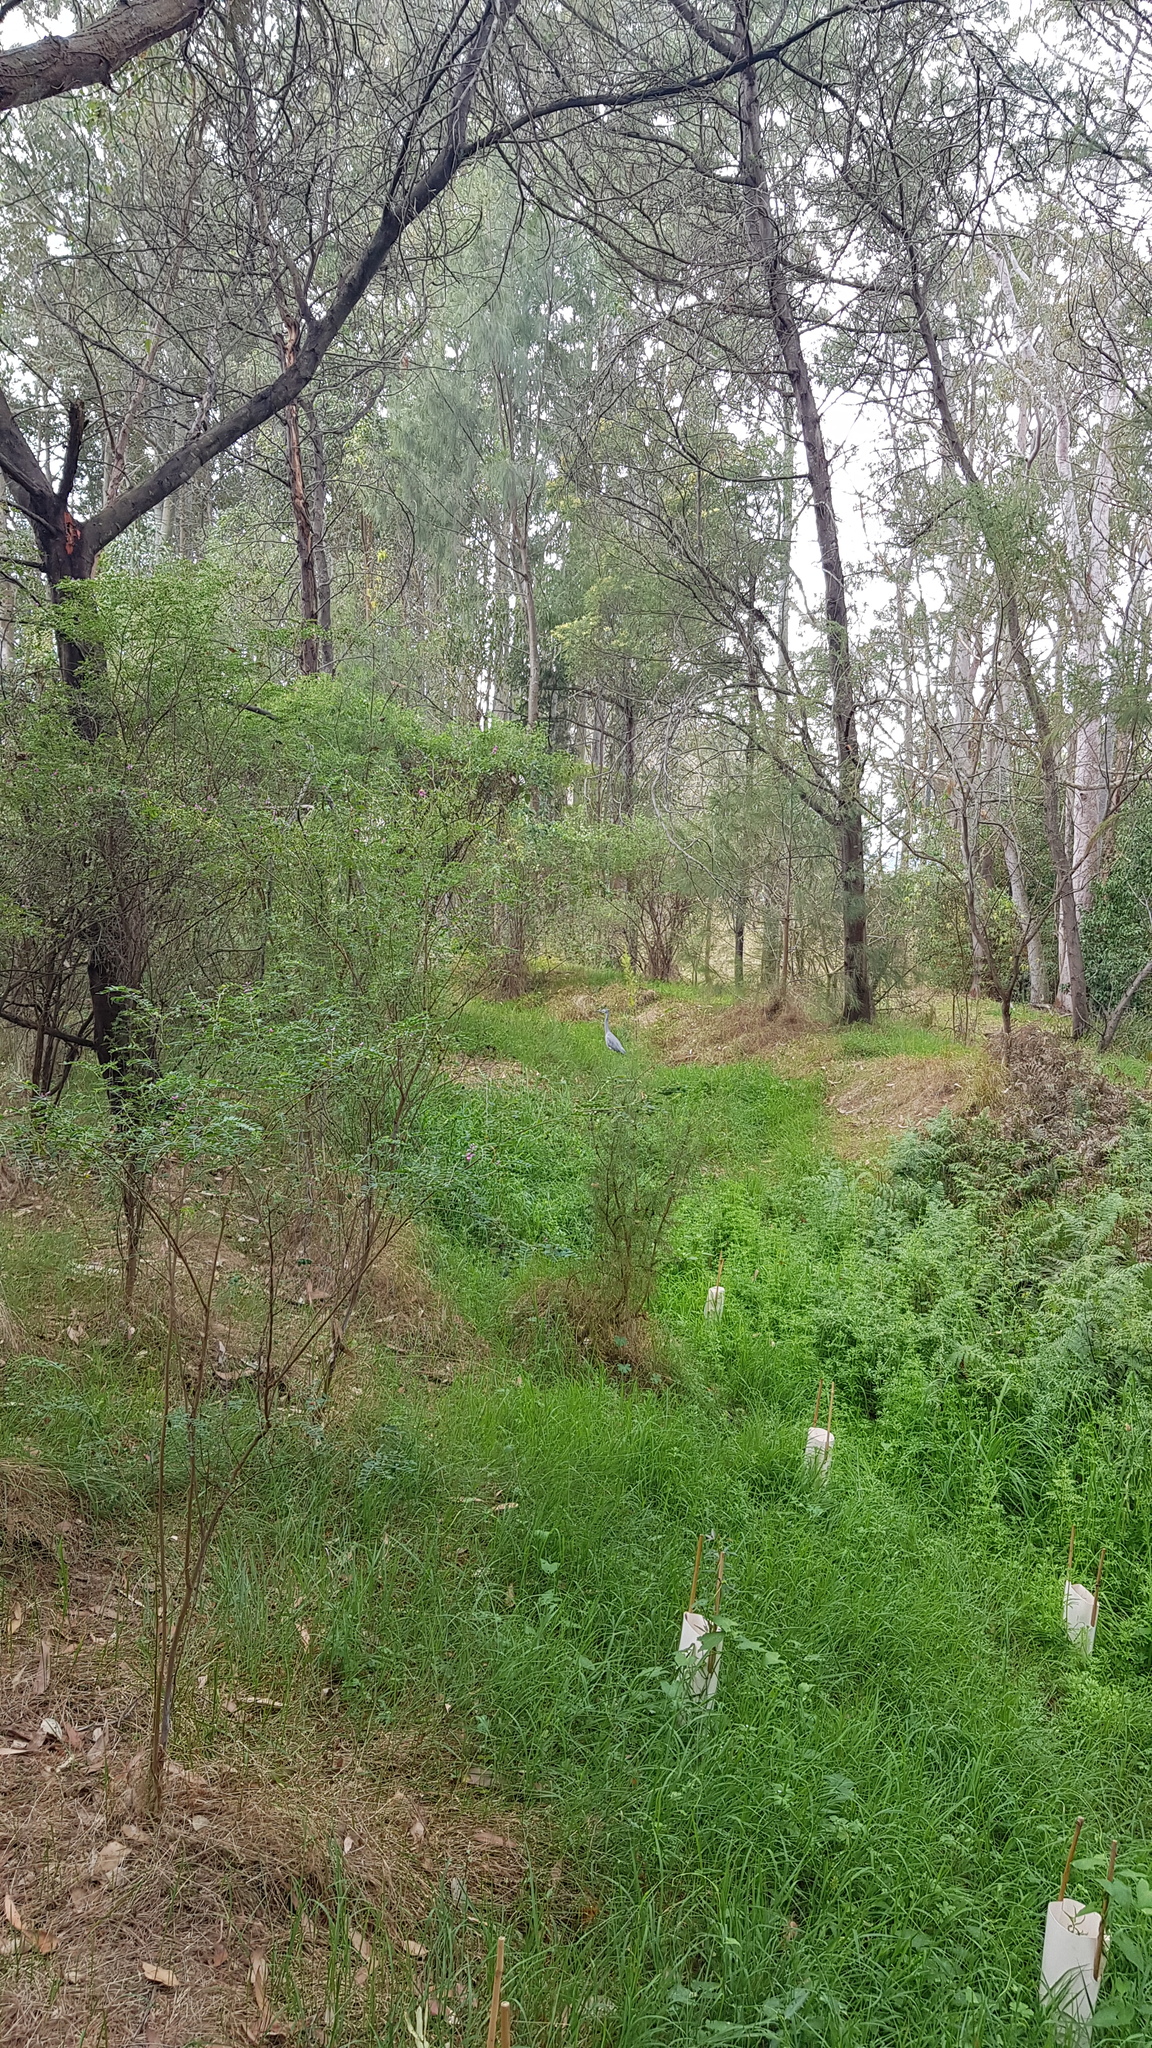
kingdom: Animalia
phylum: Chordata
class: Aves
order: Pelecaniformes
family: Ardeidae
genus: Egretta
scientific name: Egretta novaehollandiae
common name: White-faced heron
